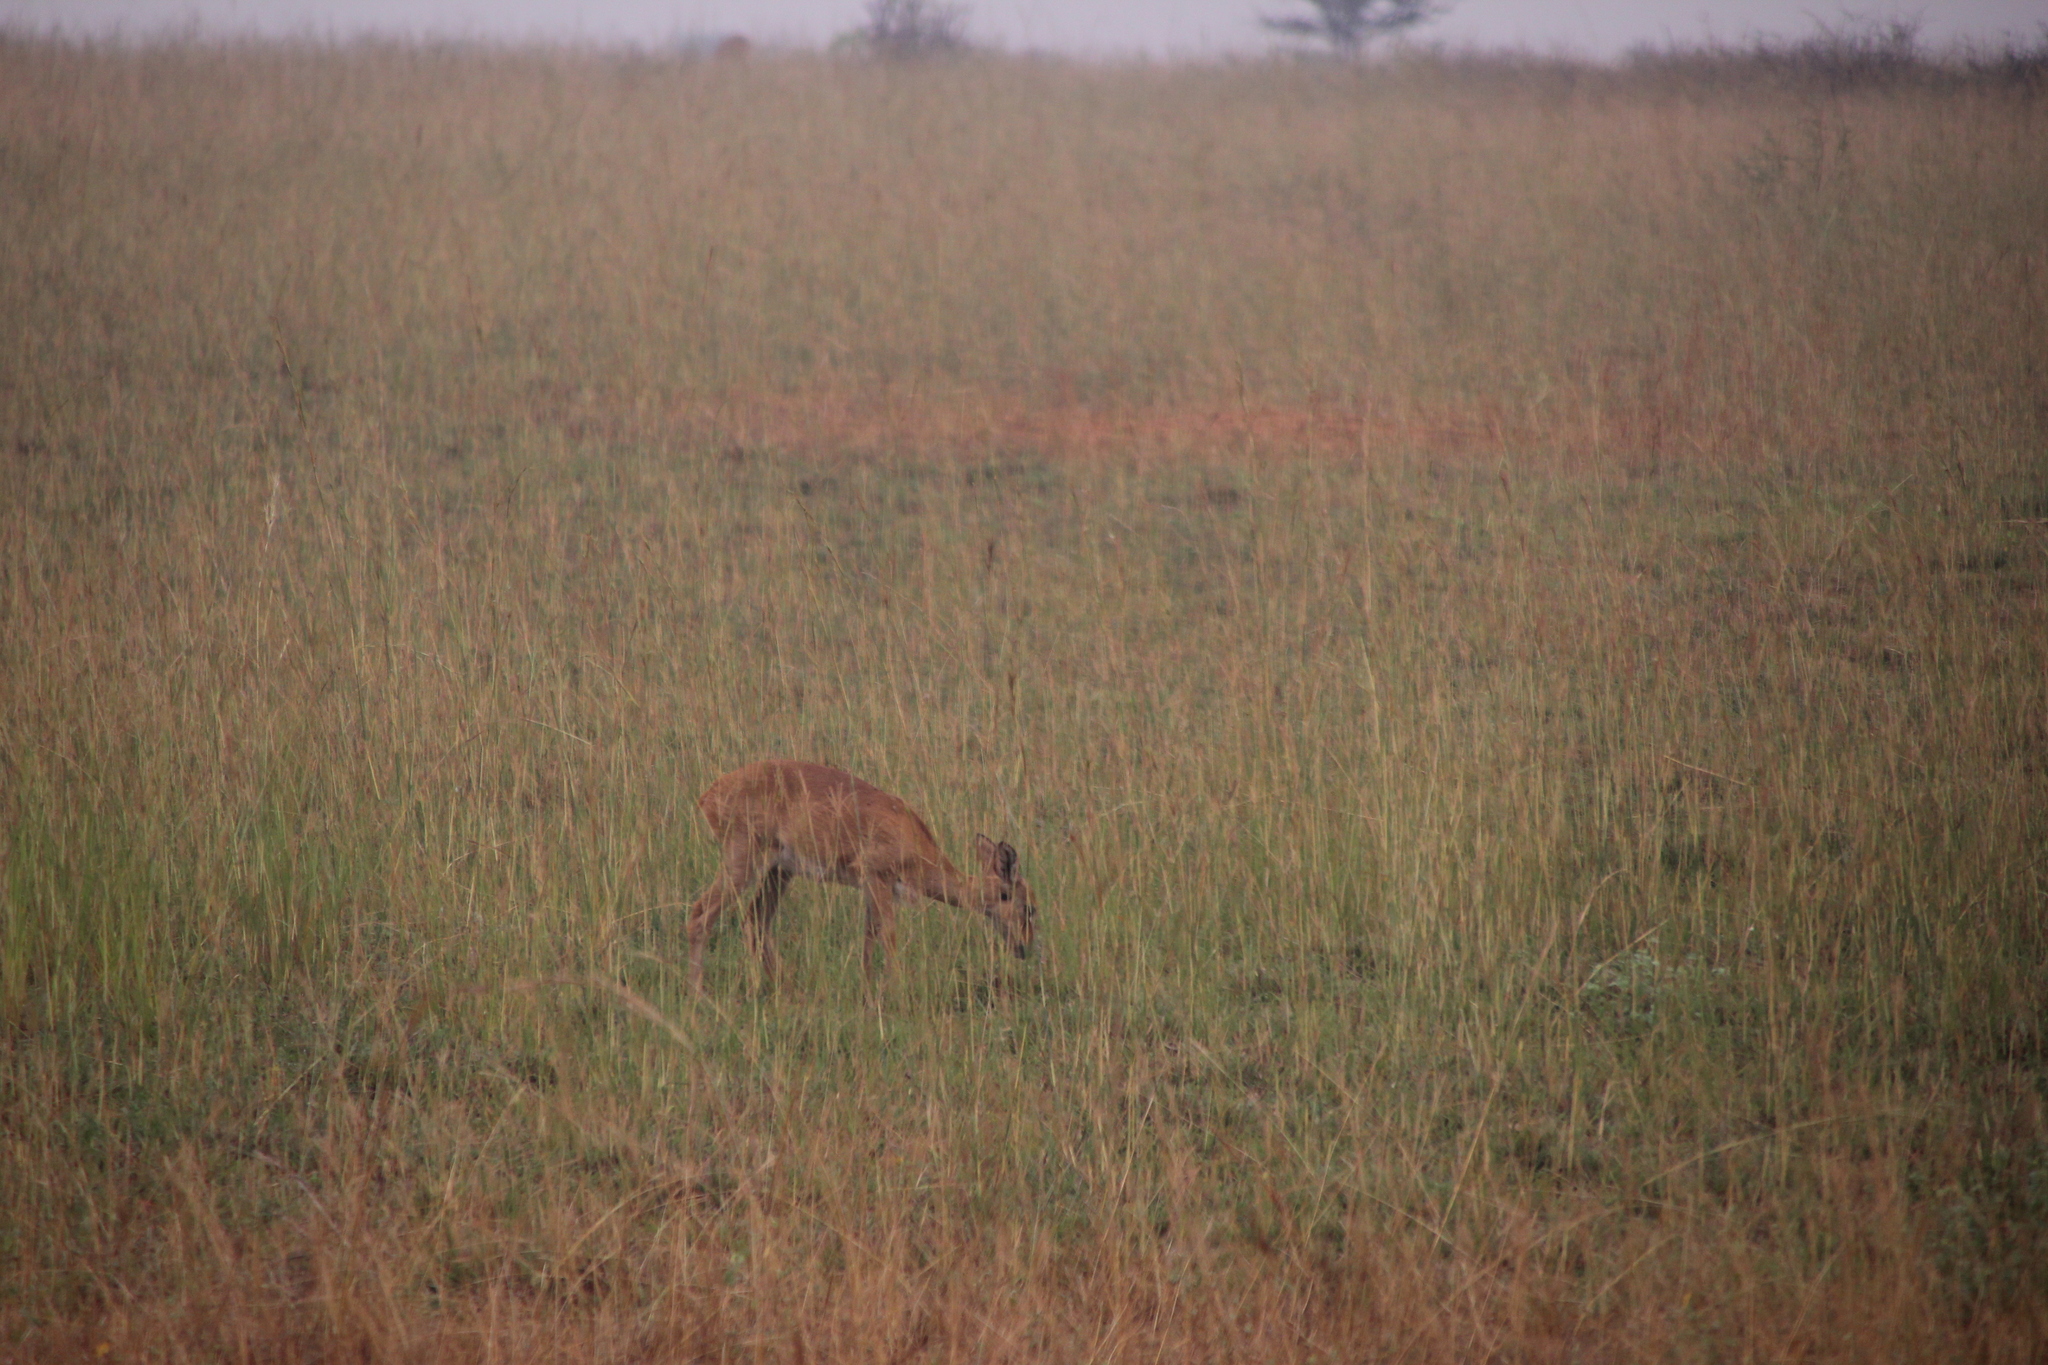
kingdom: Animalia
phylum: Chordata
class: Mammalia
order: Artiodactyla
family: Bovidae
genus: Ourebia
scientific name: Ourebia ourebi
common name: Oribi
